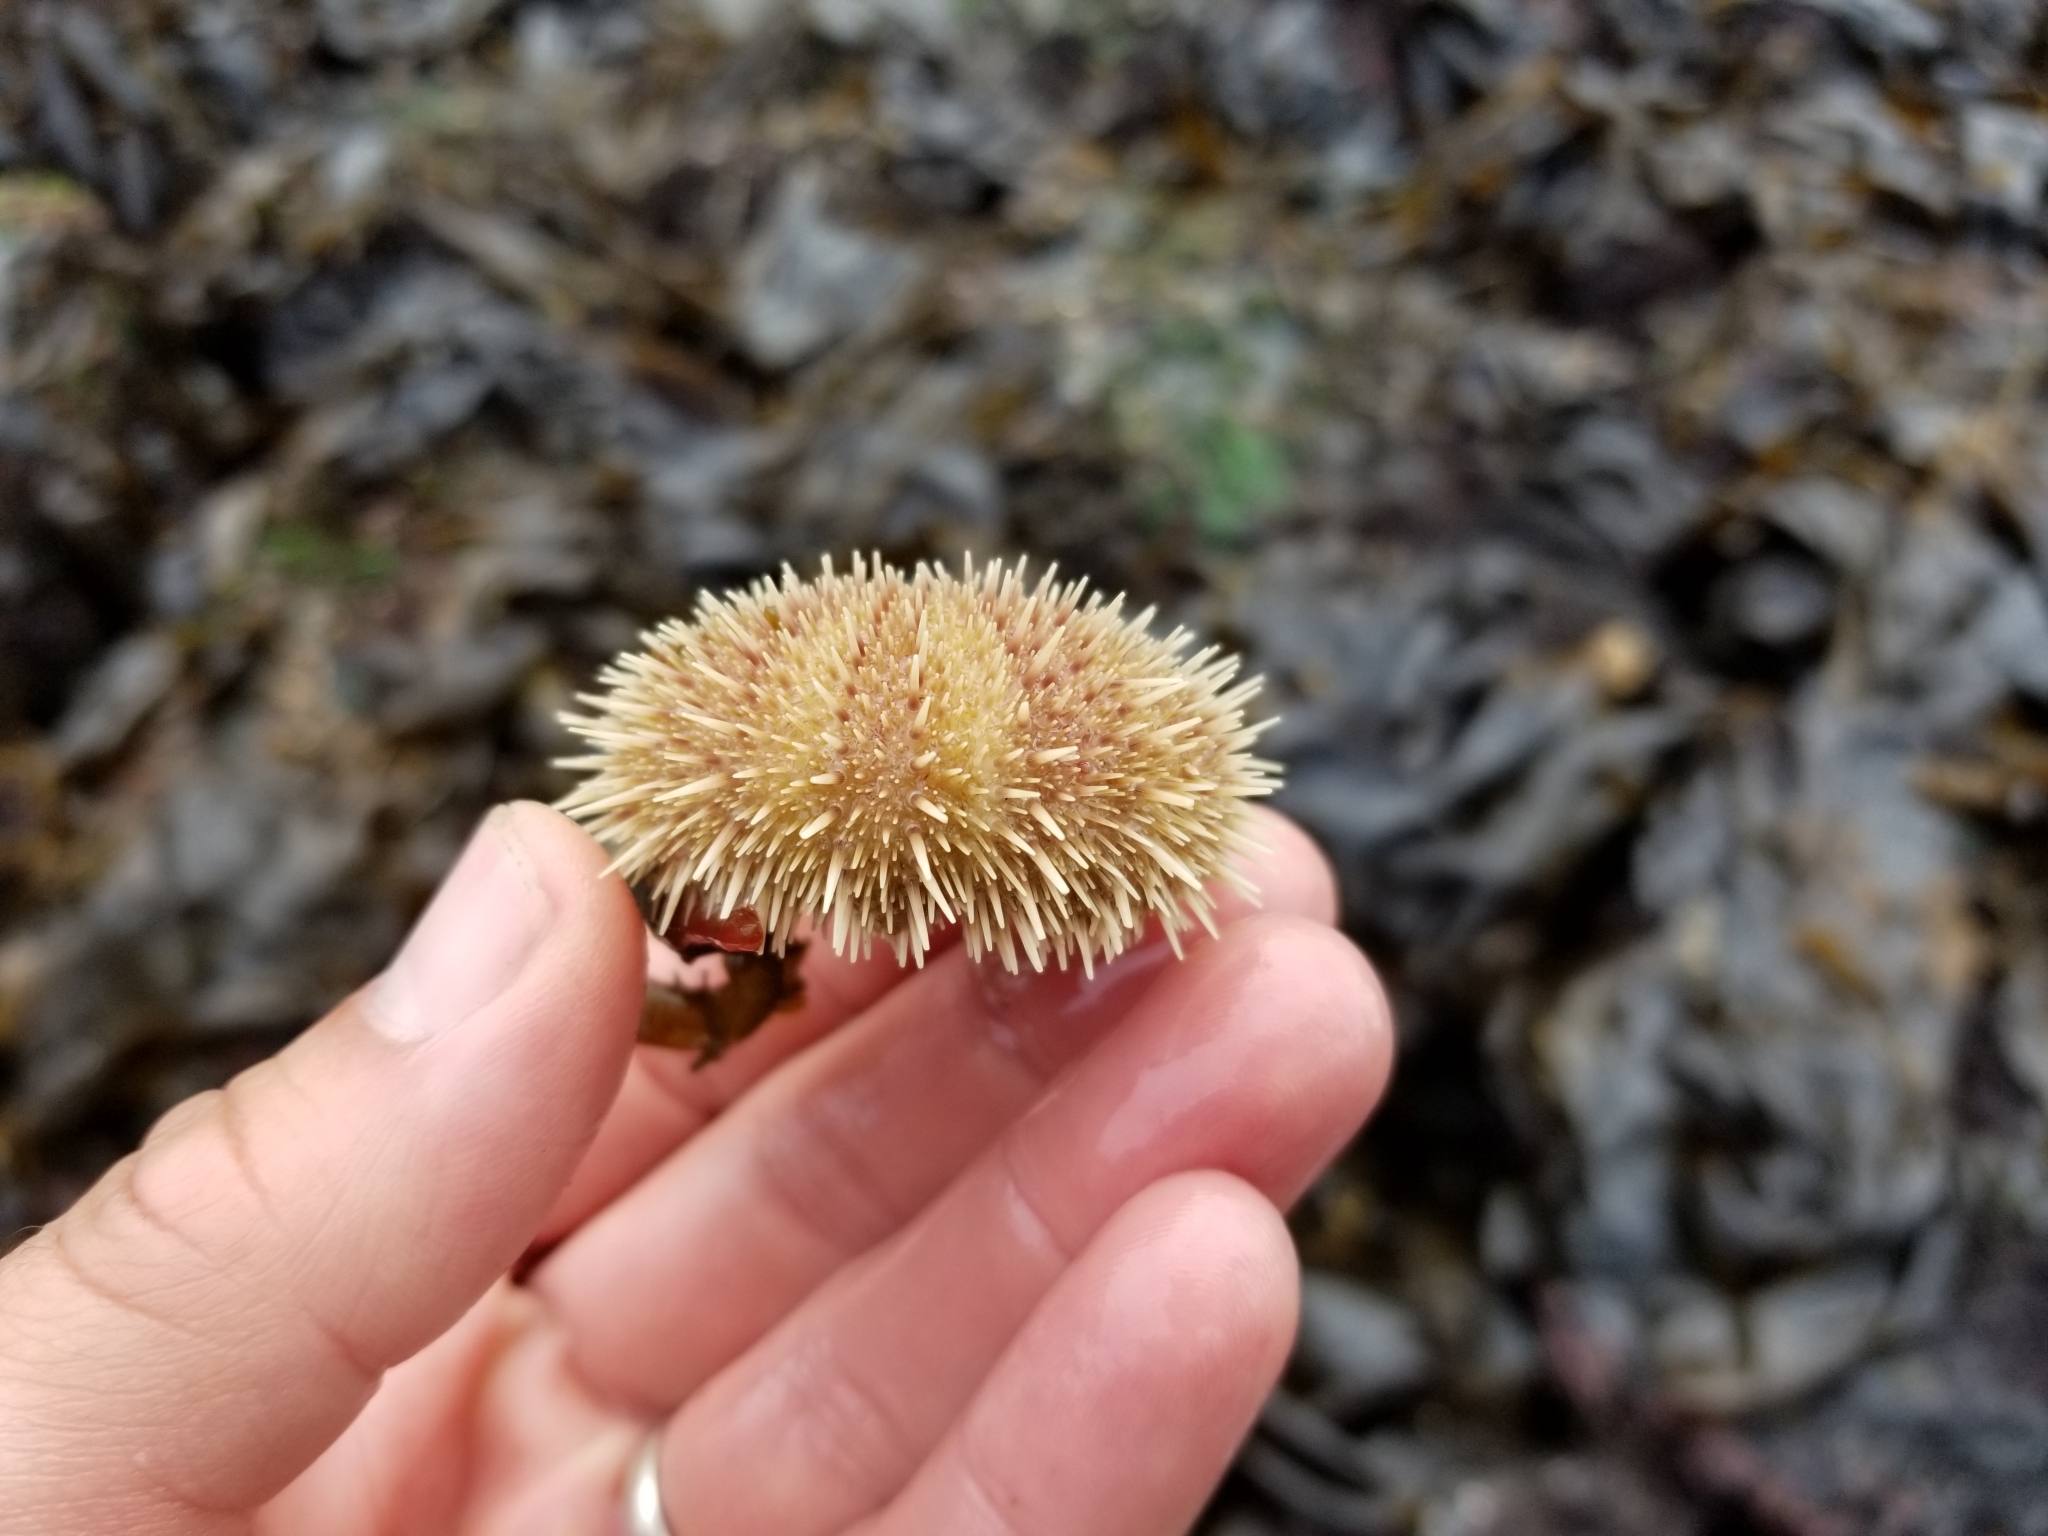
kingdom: Animalia
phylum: Echinodermata
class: Echinoidea
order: Camarodonta
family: Strongylocentrotidae
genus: Strongylocentrotus
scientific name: Strongylocentrotus droebachiensis
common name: Northern sea urchin
